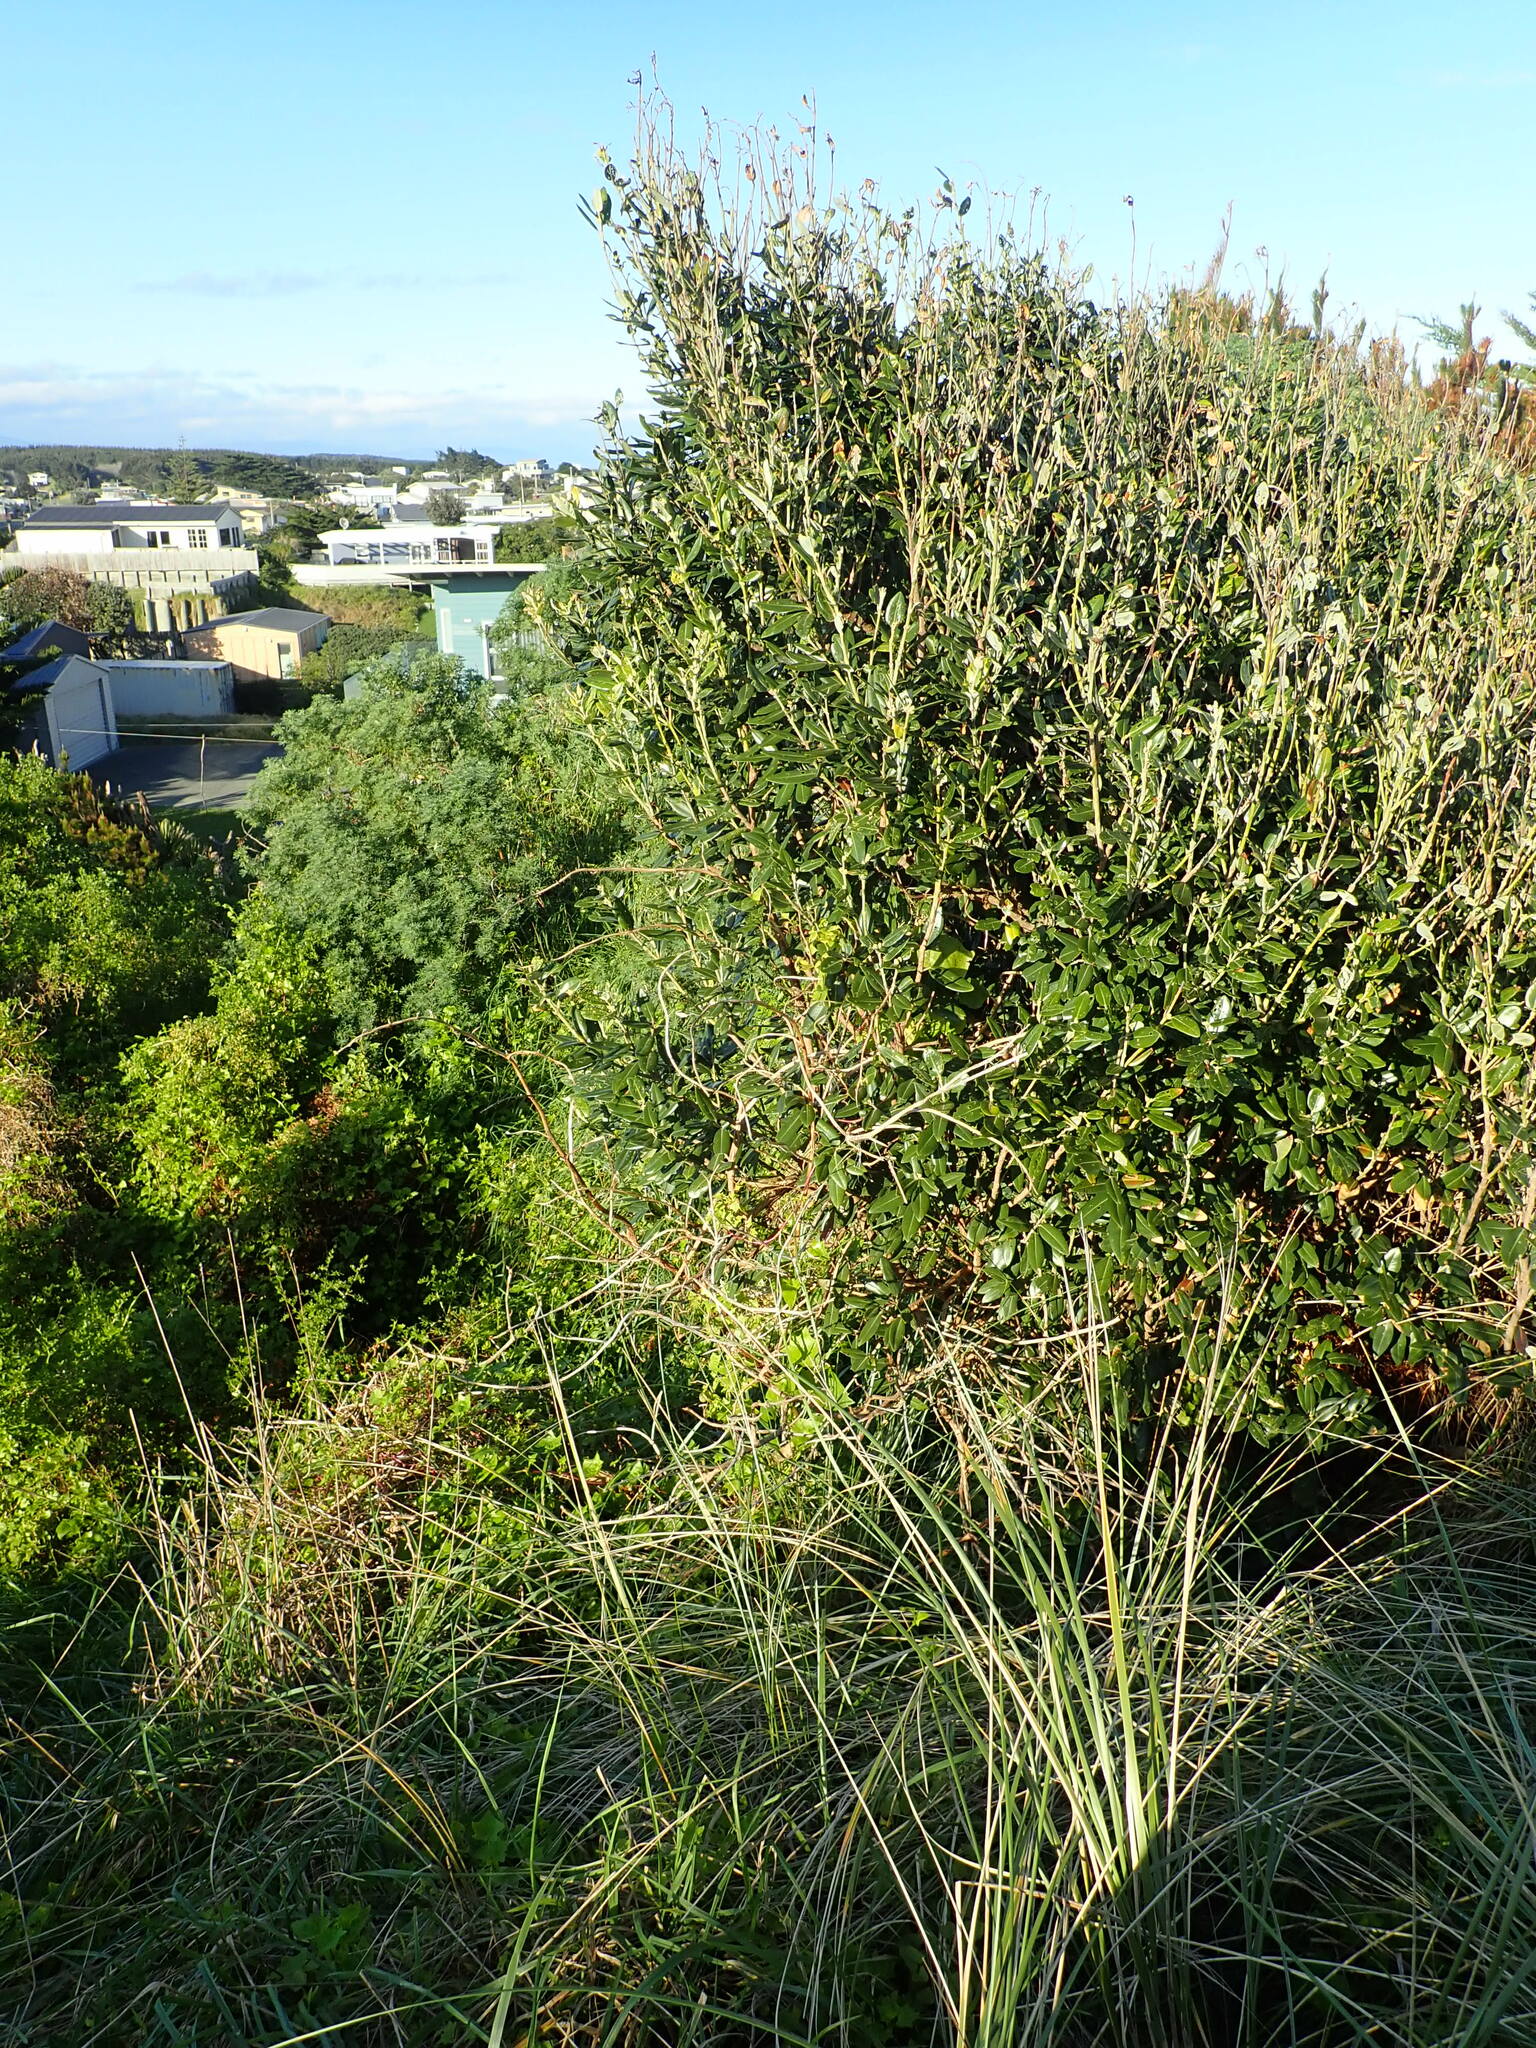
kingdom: Plantae
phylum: Tracheophyta
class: Magnoliopsida
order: Myrtales
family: Myrtaceae
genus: Metrosideros
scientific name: Metrosideros excelsa
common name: New zealand christmastree
